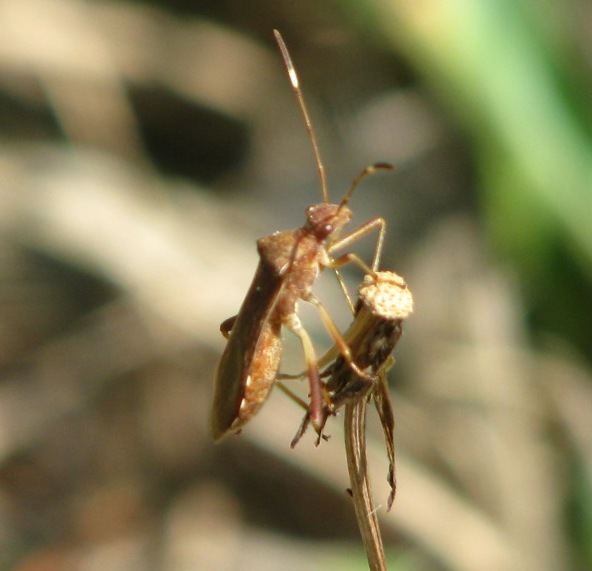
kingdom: Animalia
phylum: Arthropoda
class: Insecta
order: Hemiptera
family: Alydidae
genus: Megalotomus
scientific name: Megalotomus quinquespinosus
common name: Lupine bug
